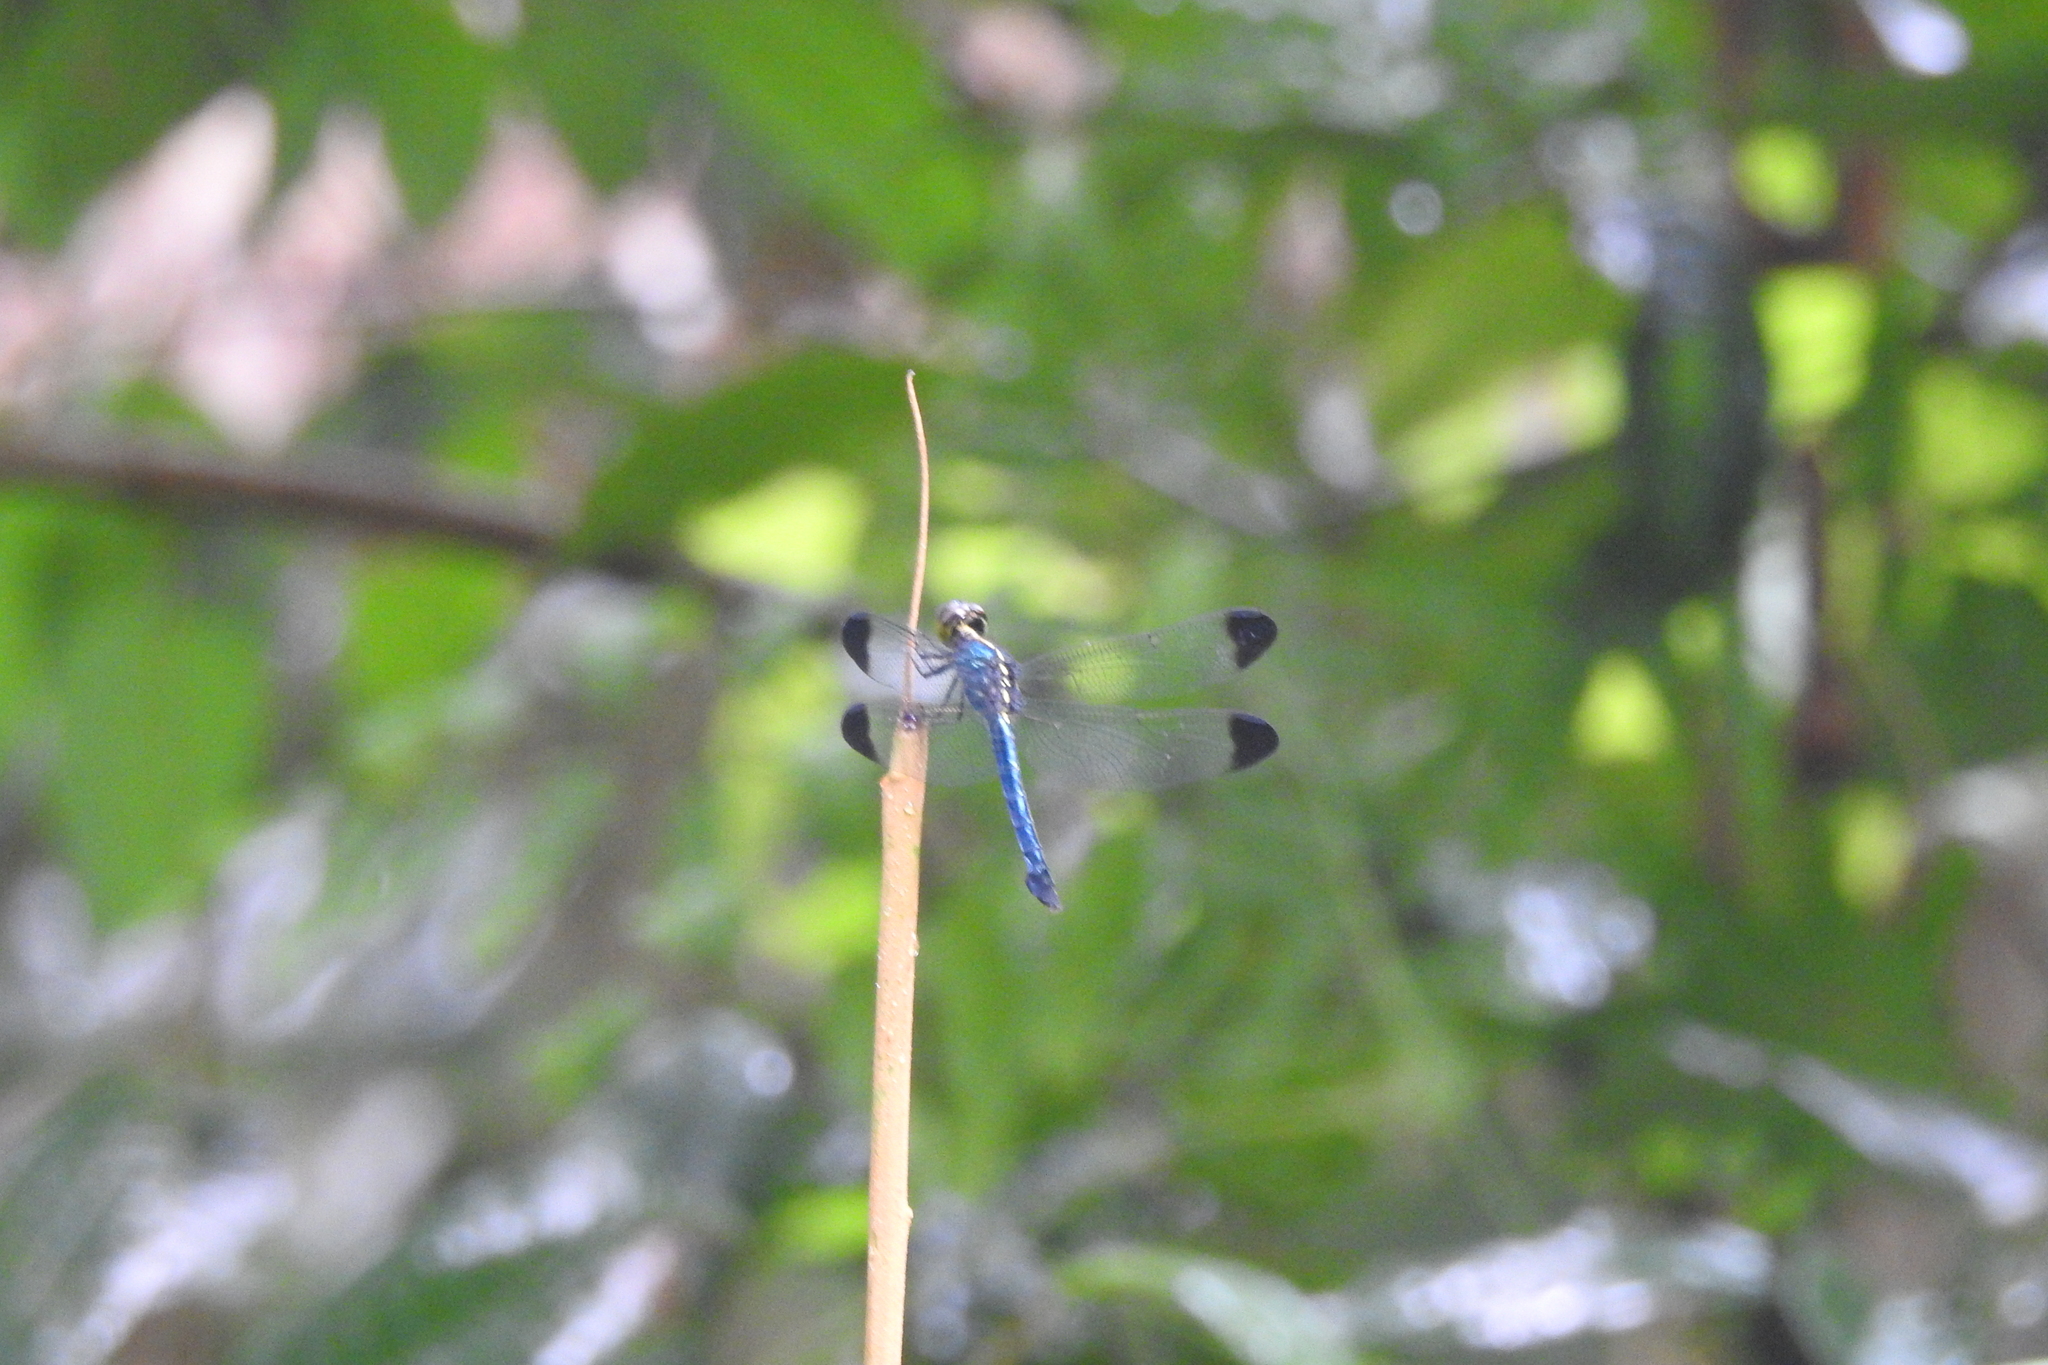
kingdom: Animalia
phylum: Arthropoda
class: Insecta
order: Odonata
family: Libellulidae
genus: Cratilla
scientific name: Cratilla metallica
